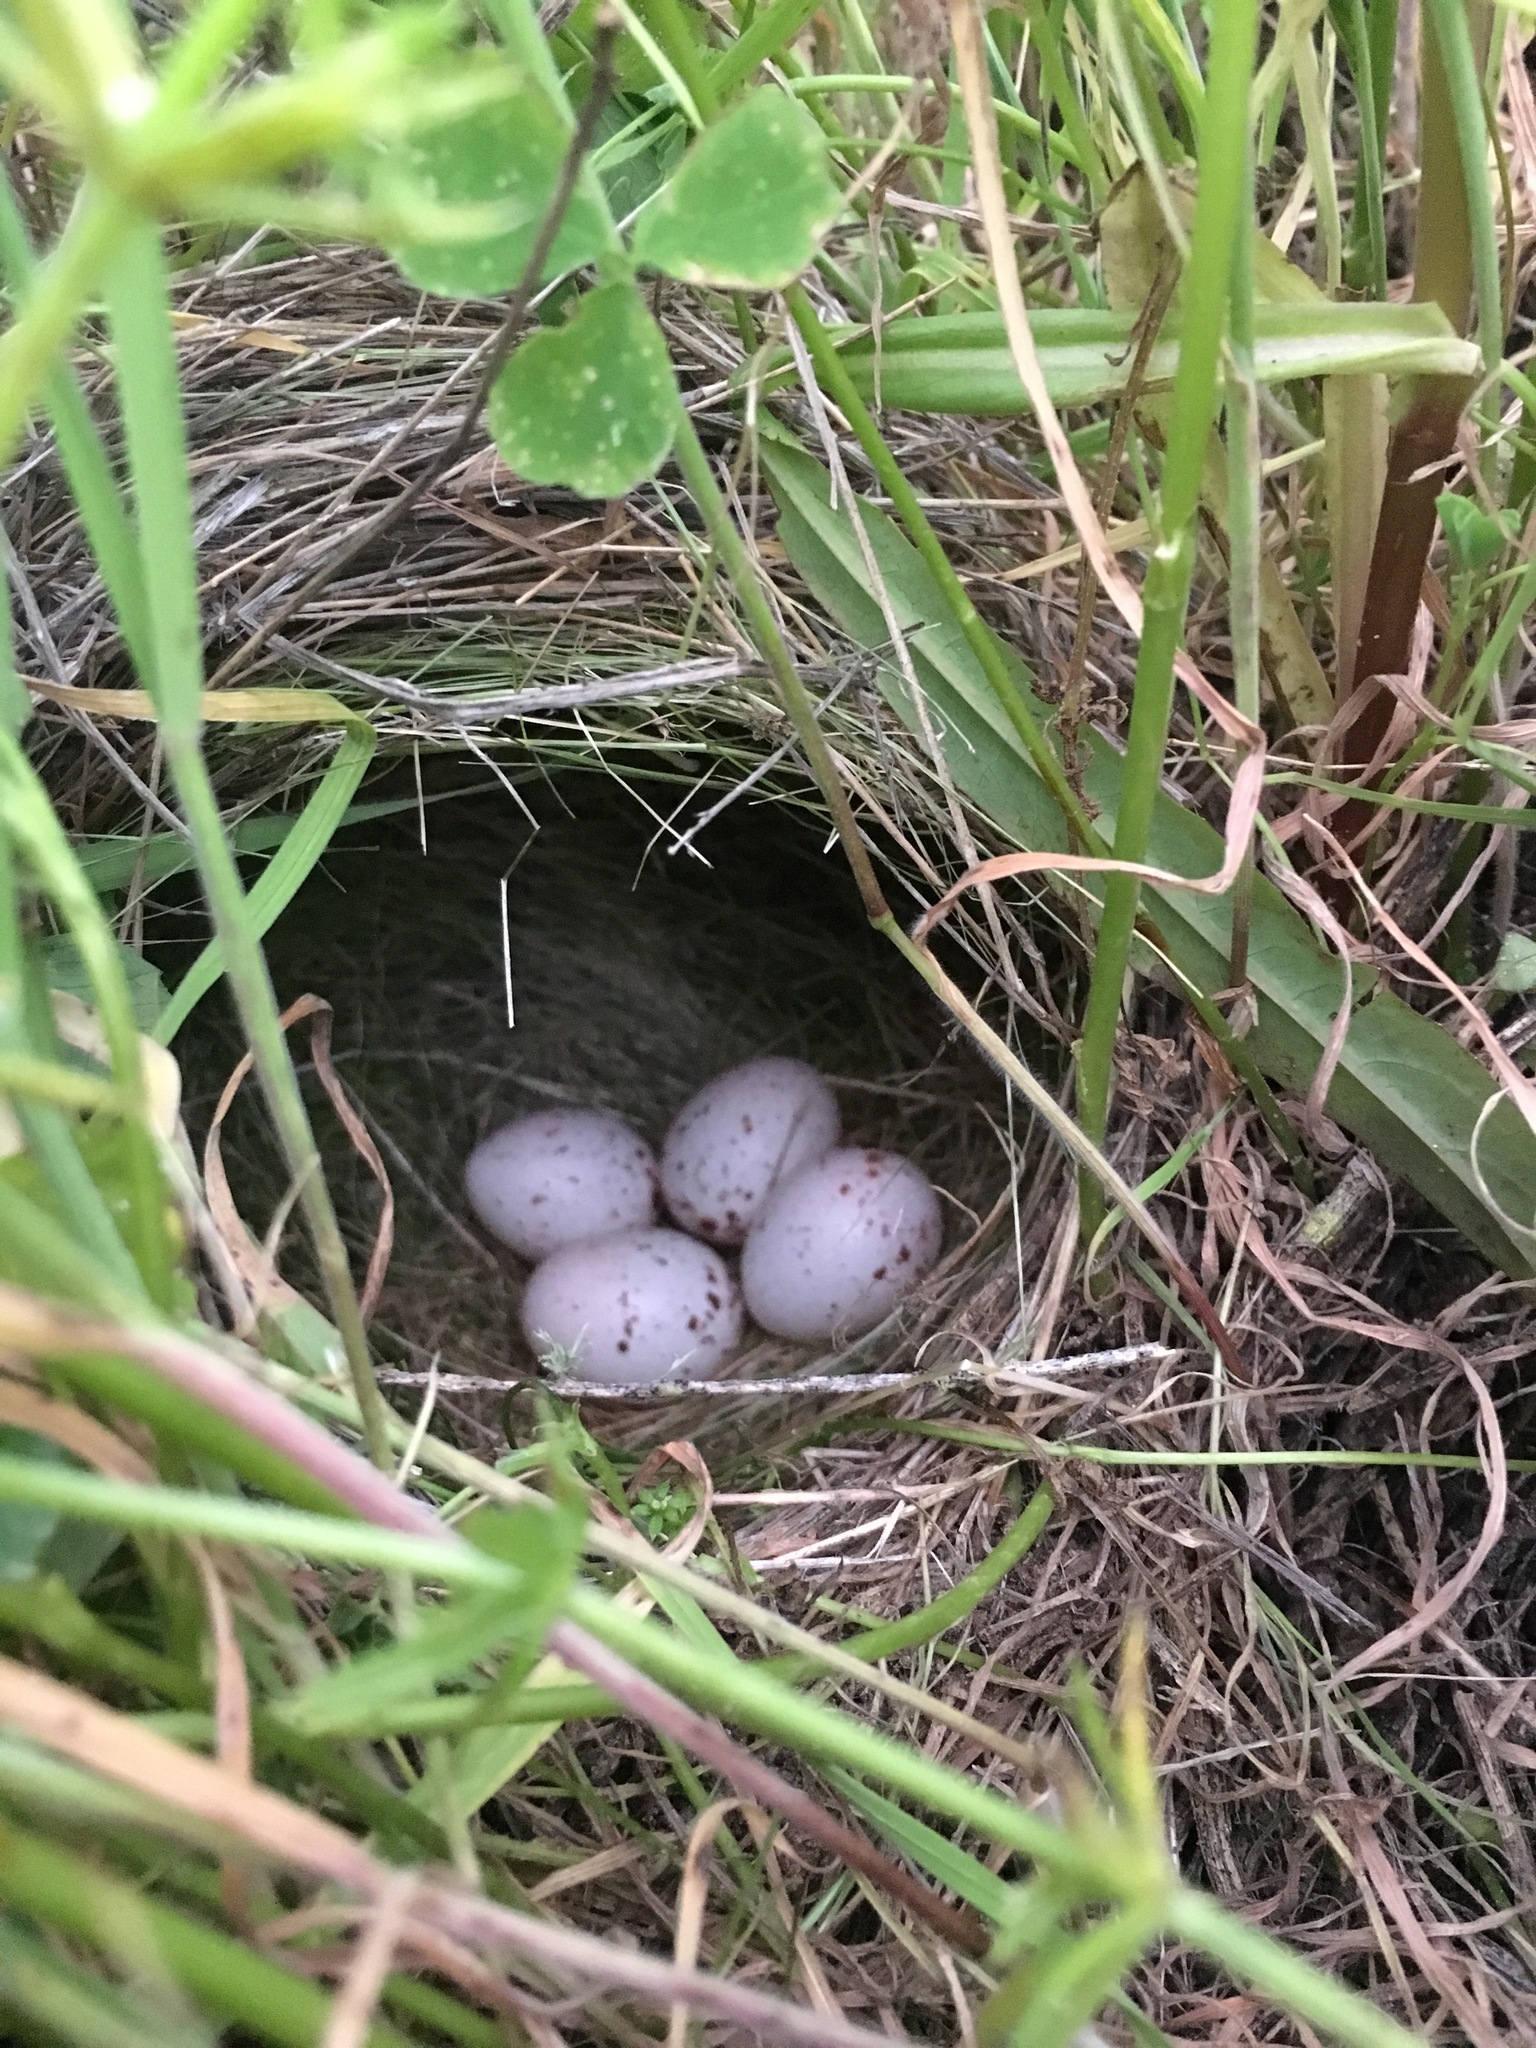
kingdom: Animalia
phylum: Chordata
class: Aves
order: Passeriformes
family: Icteridae
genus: Sturnella
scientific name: Sturnella neglecta
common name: Western meadowlark
